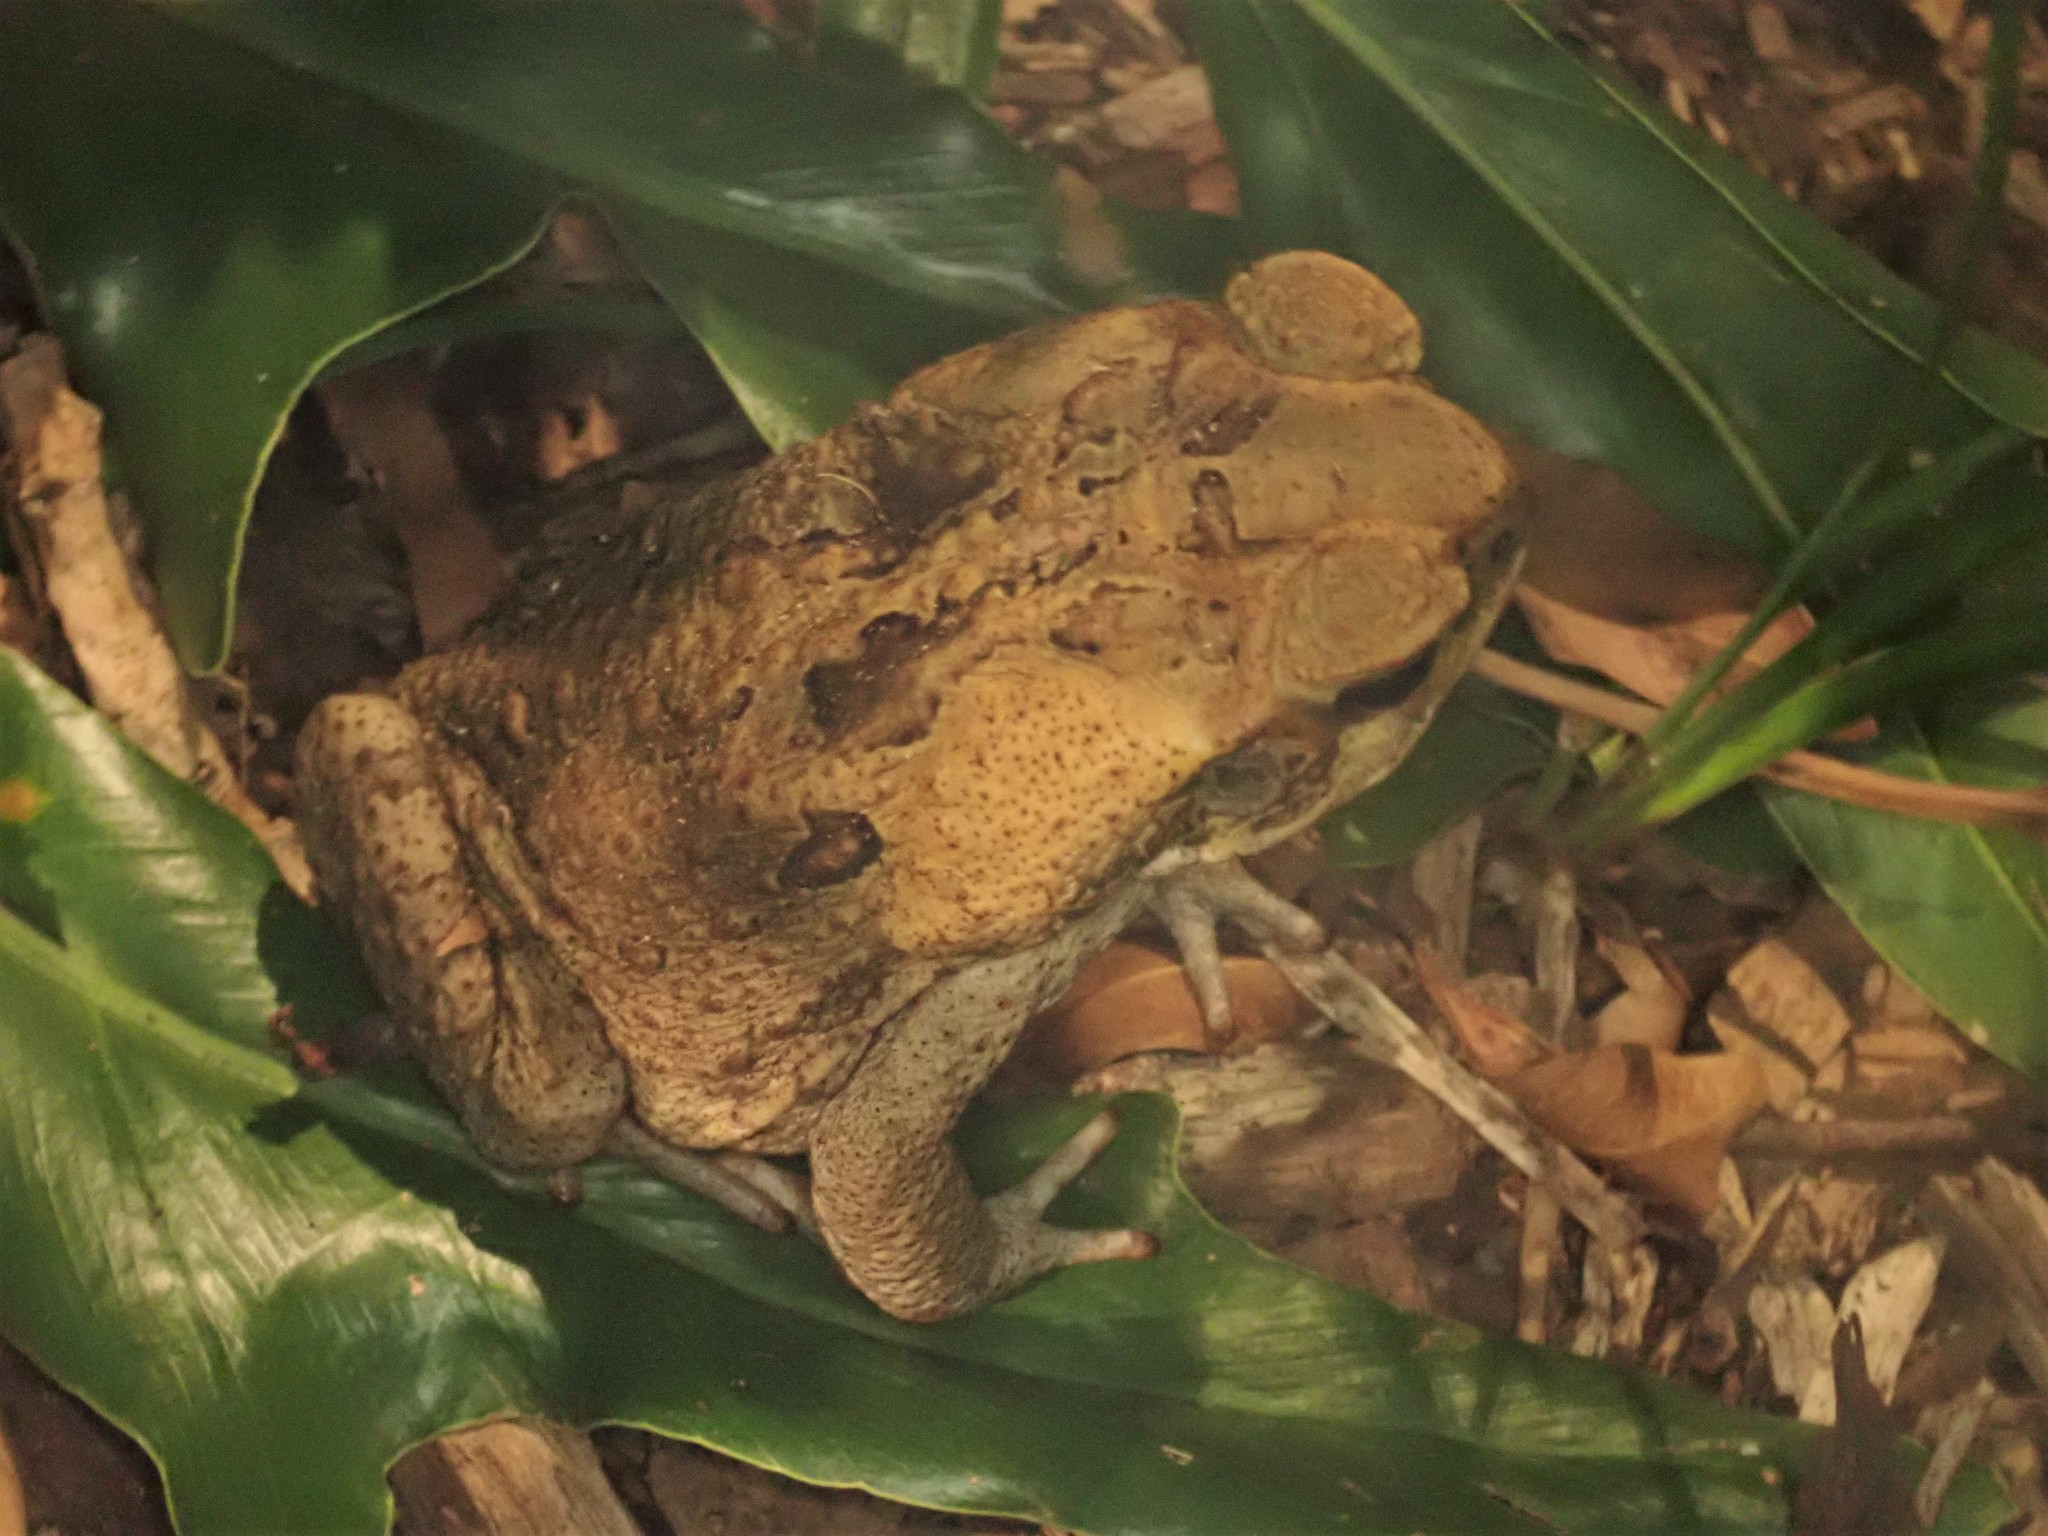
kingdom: Animalia
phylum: Chordata
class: Amphibia
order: Anura
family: Bufonidae
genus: Rhinella
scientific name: Rhinella marina
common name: Cane toad
